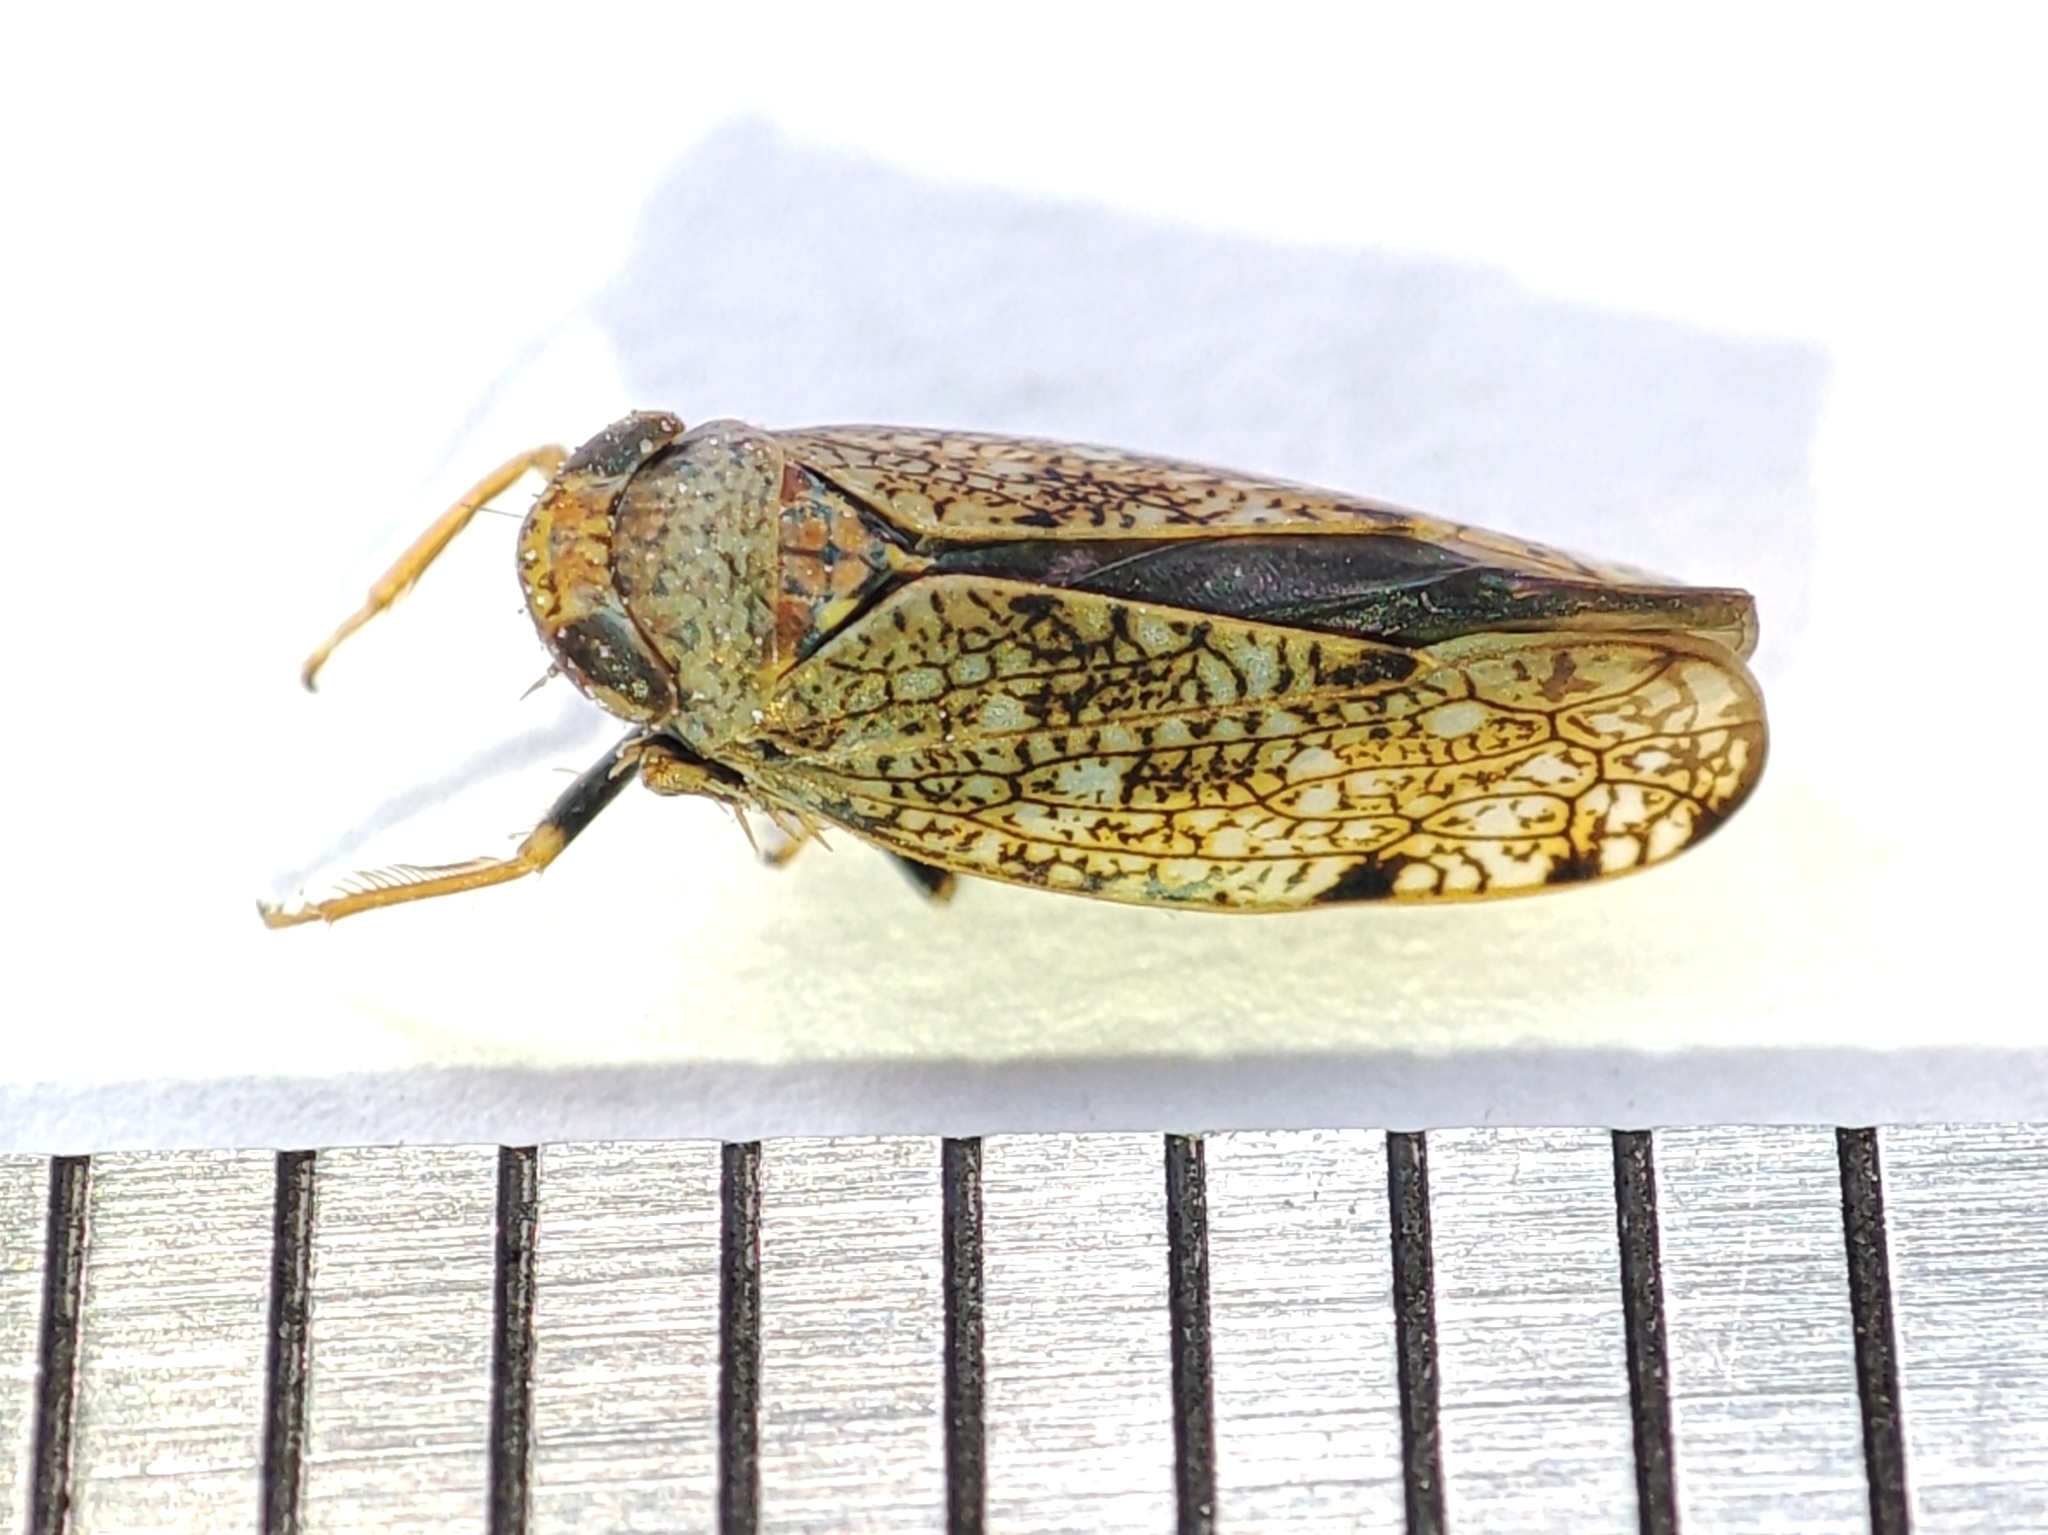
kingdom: Animalia
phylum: Arthropoda
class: Insecta
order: Hemiptera
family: Cicadellidae
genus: Orientus
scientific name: Orientus ishidae
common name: Japanese leafhopper
